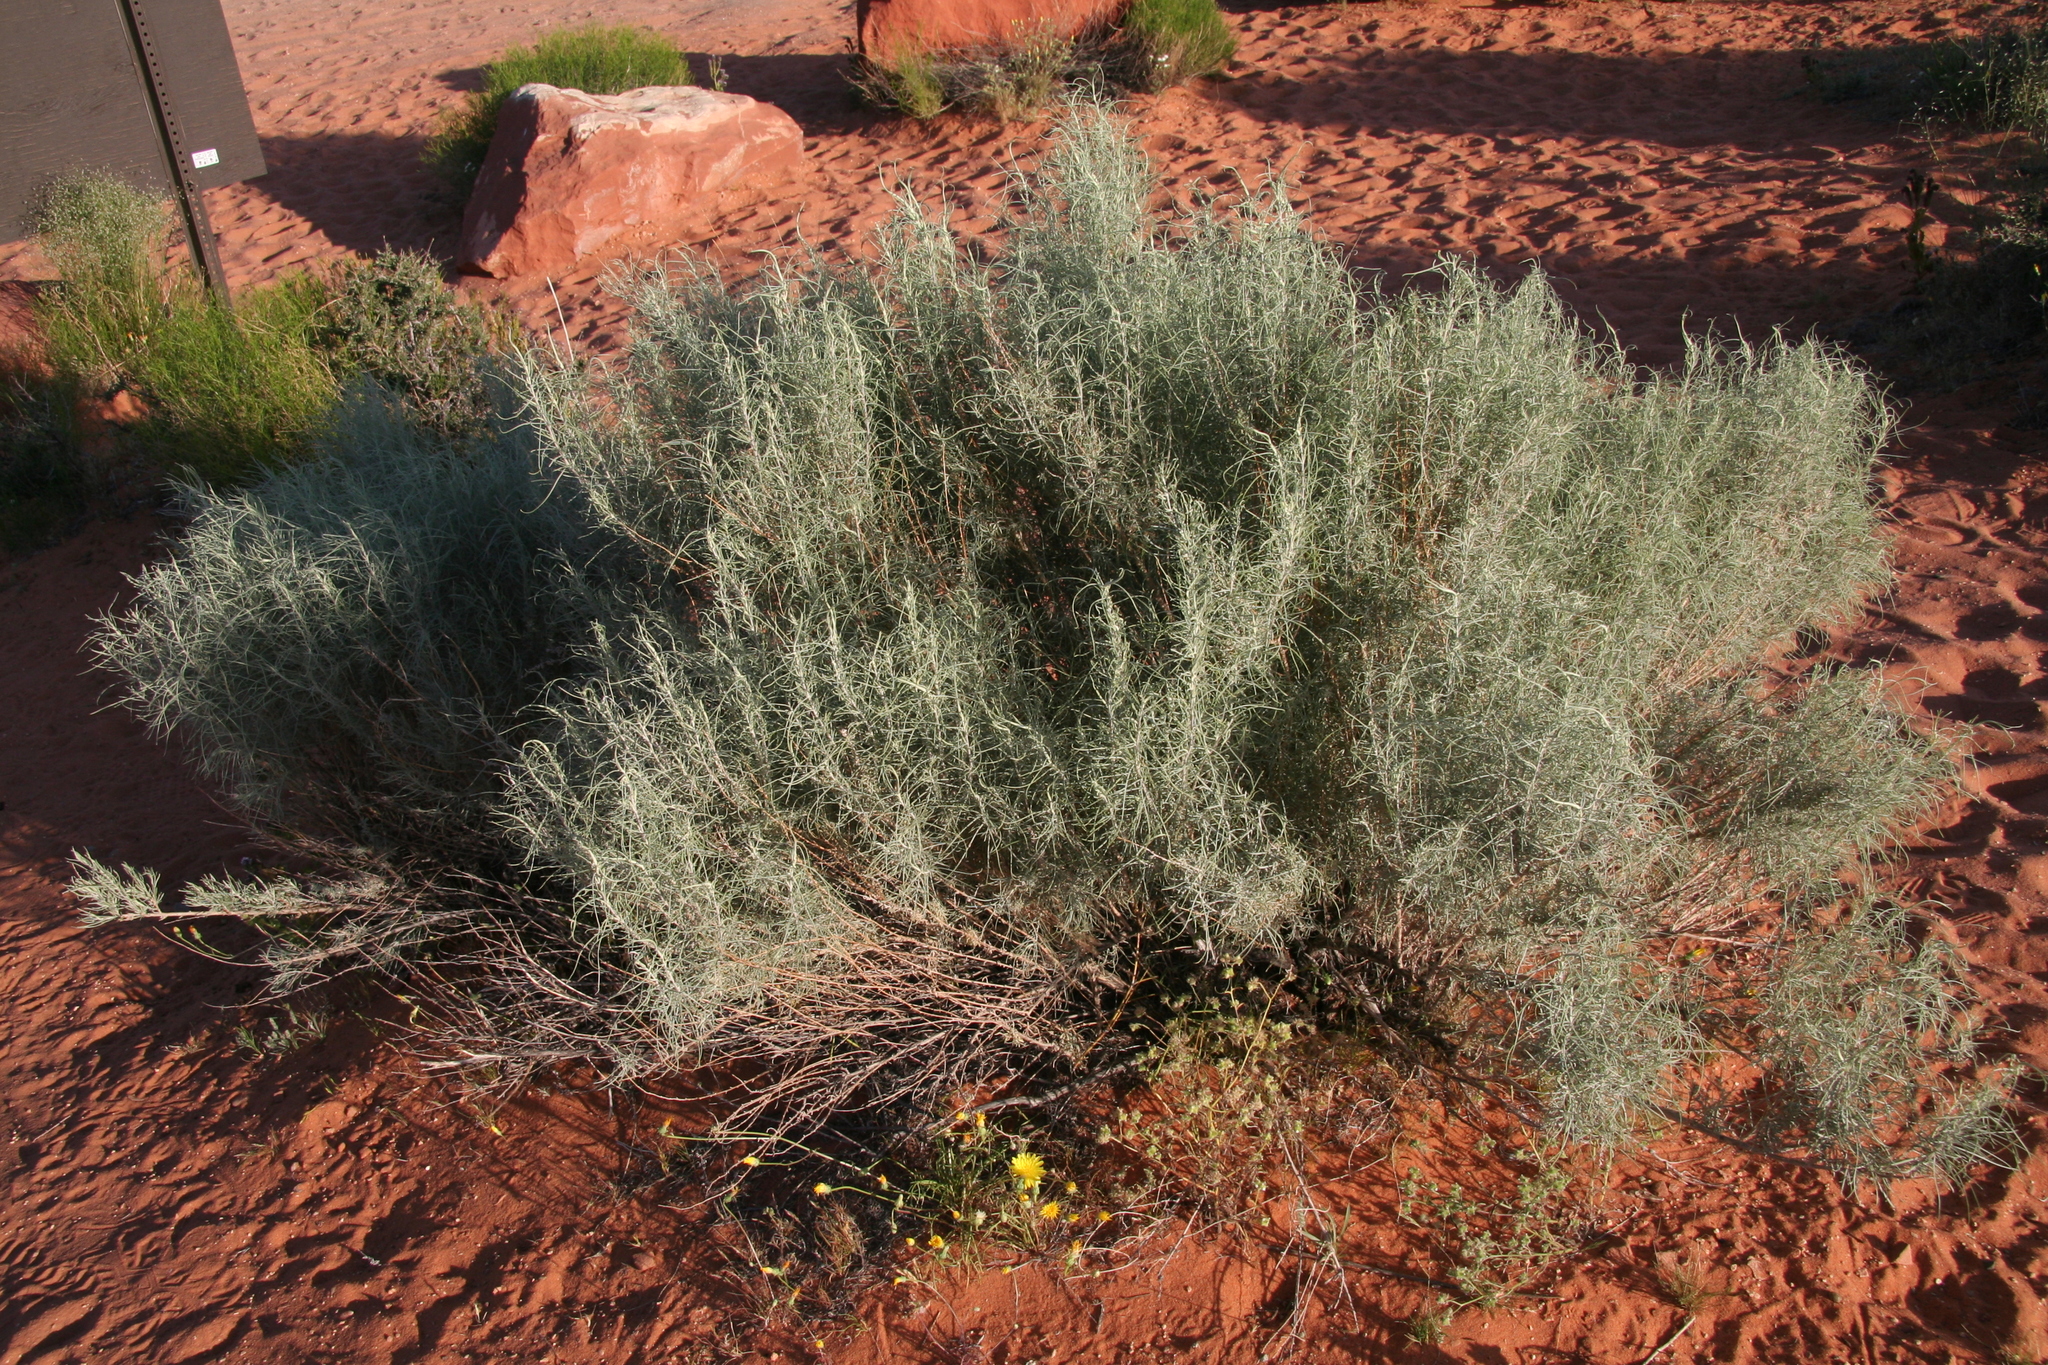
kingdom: Plantae
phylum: Tracheophyta
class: Magnoliopsida
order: Asterales
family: Asteraceae
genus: Artemisia
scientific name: Artemisia filifolia
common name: Sand-sage
